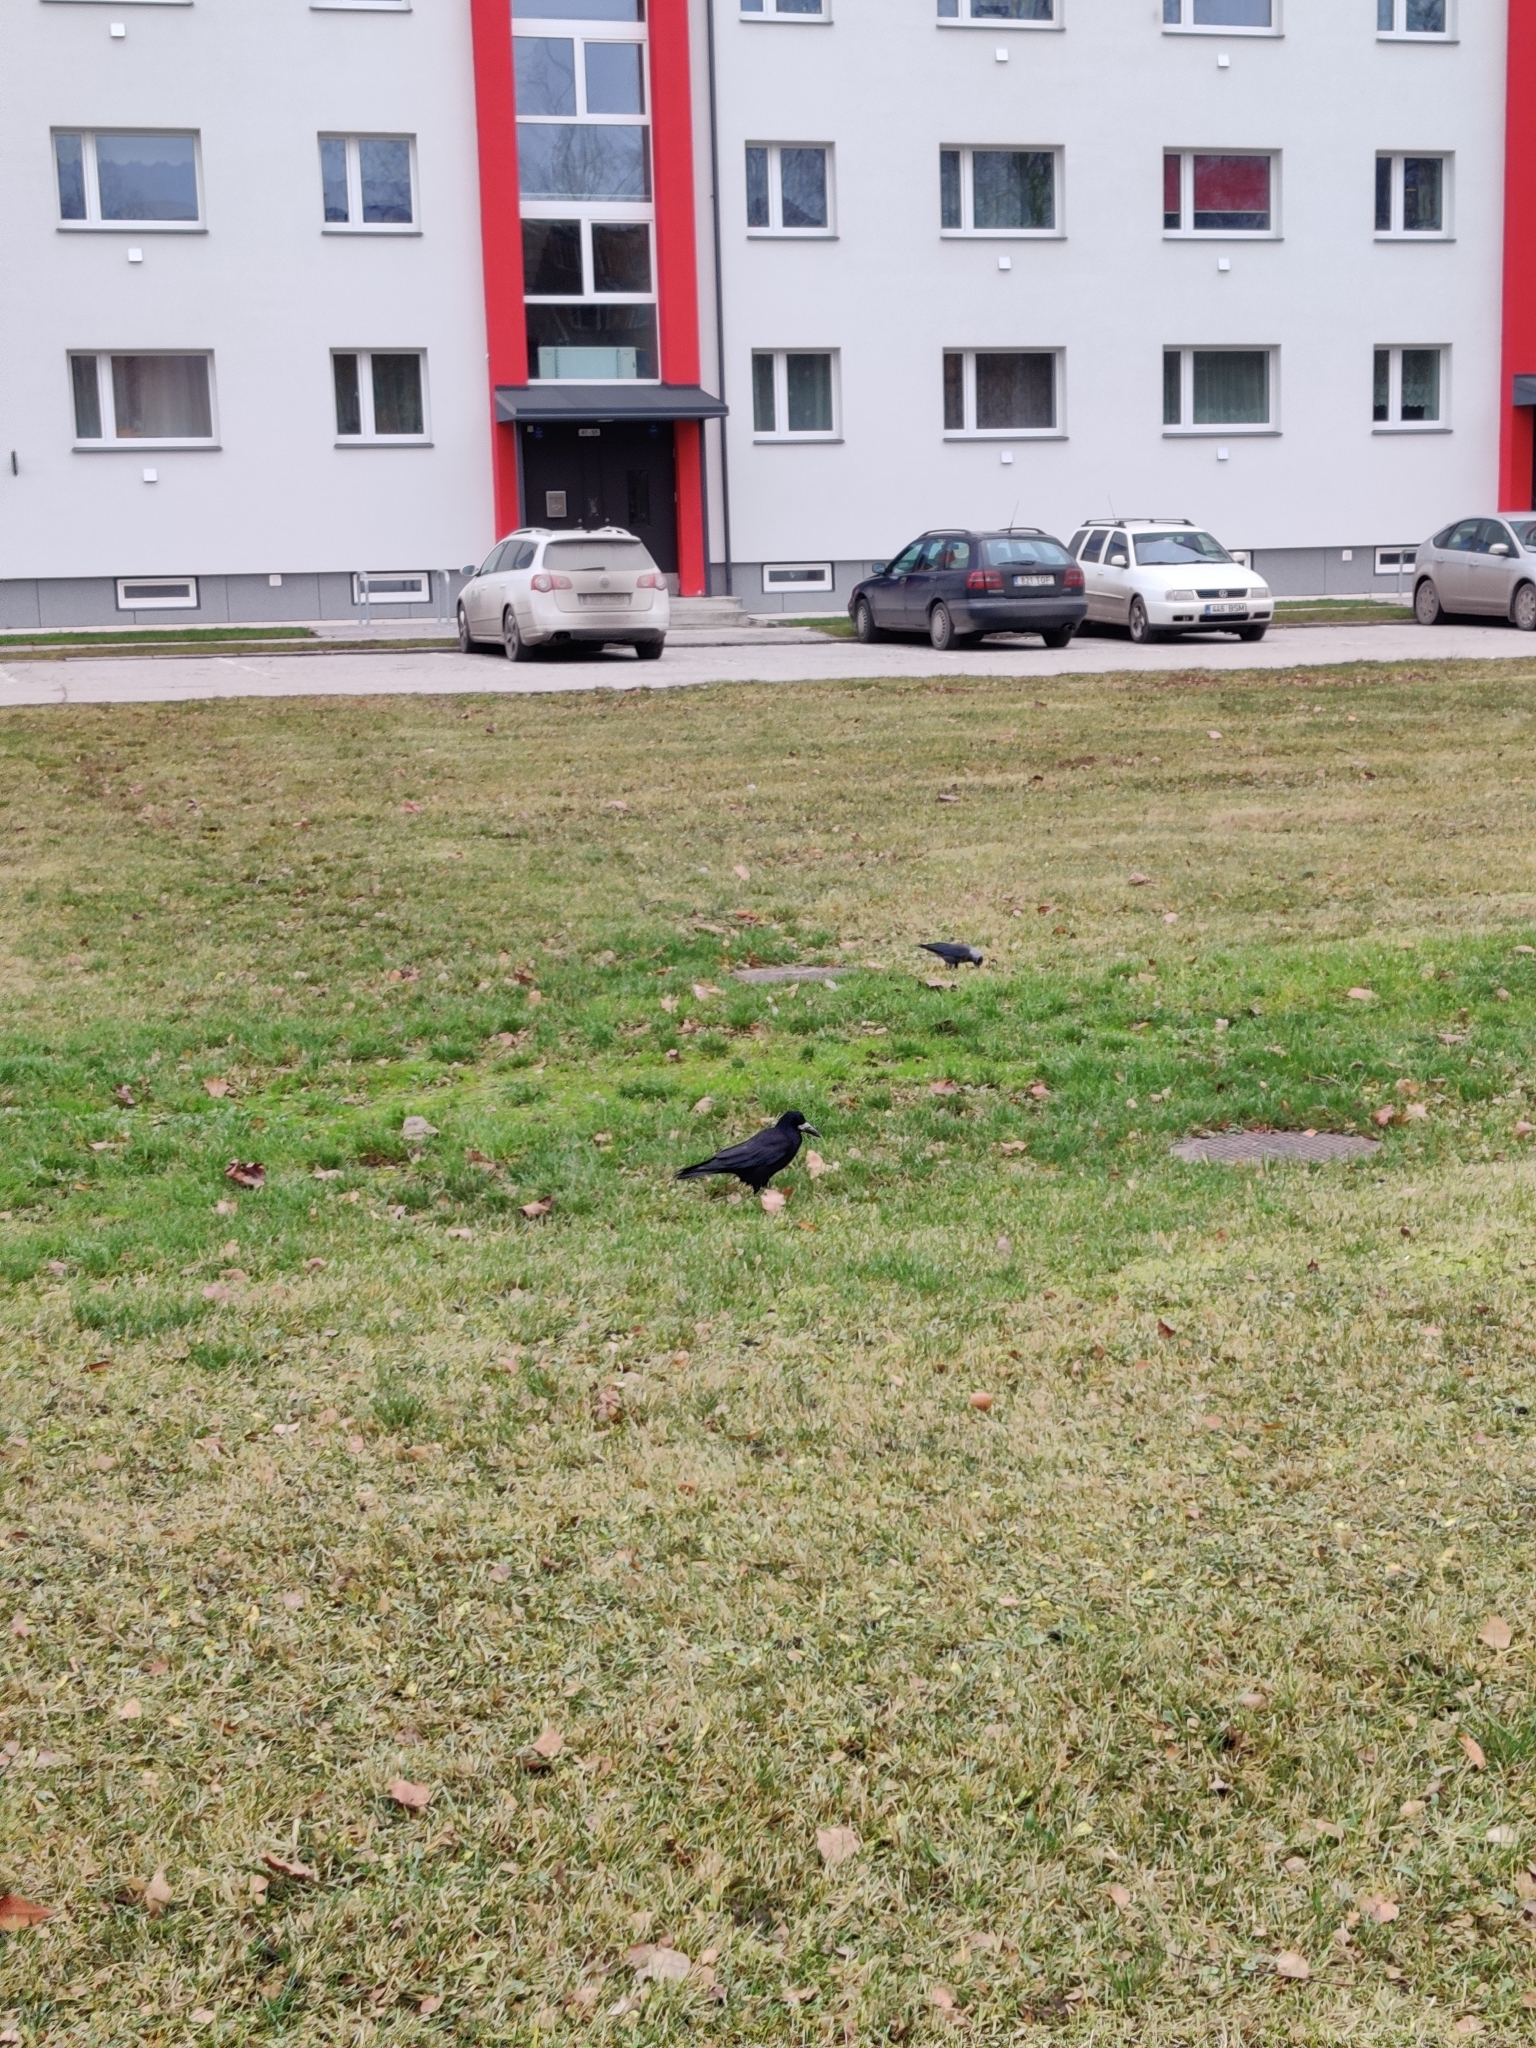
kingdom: Animalia
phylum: Chordata
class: Aves
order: Passeriformes
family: Corvidae
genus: Corvus
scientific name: Corvus frugilegus
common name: Rook
